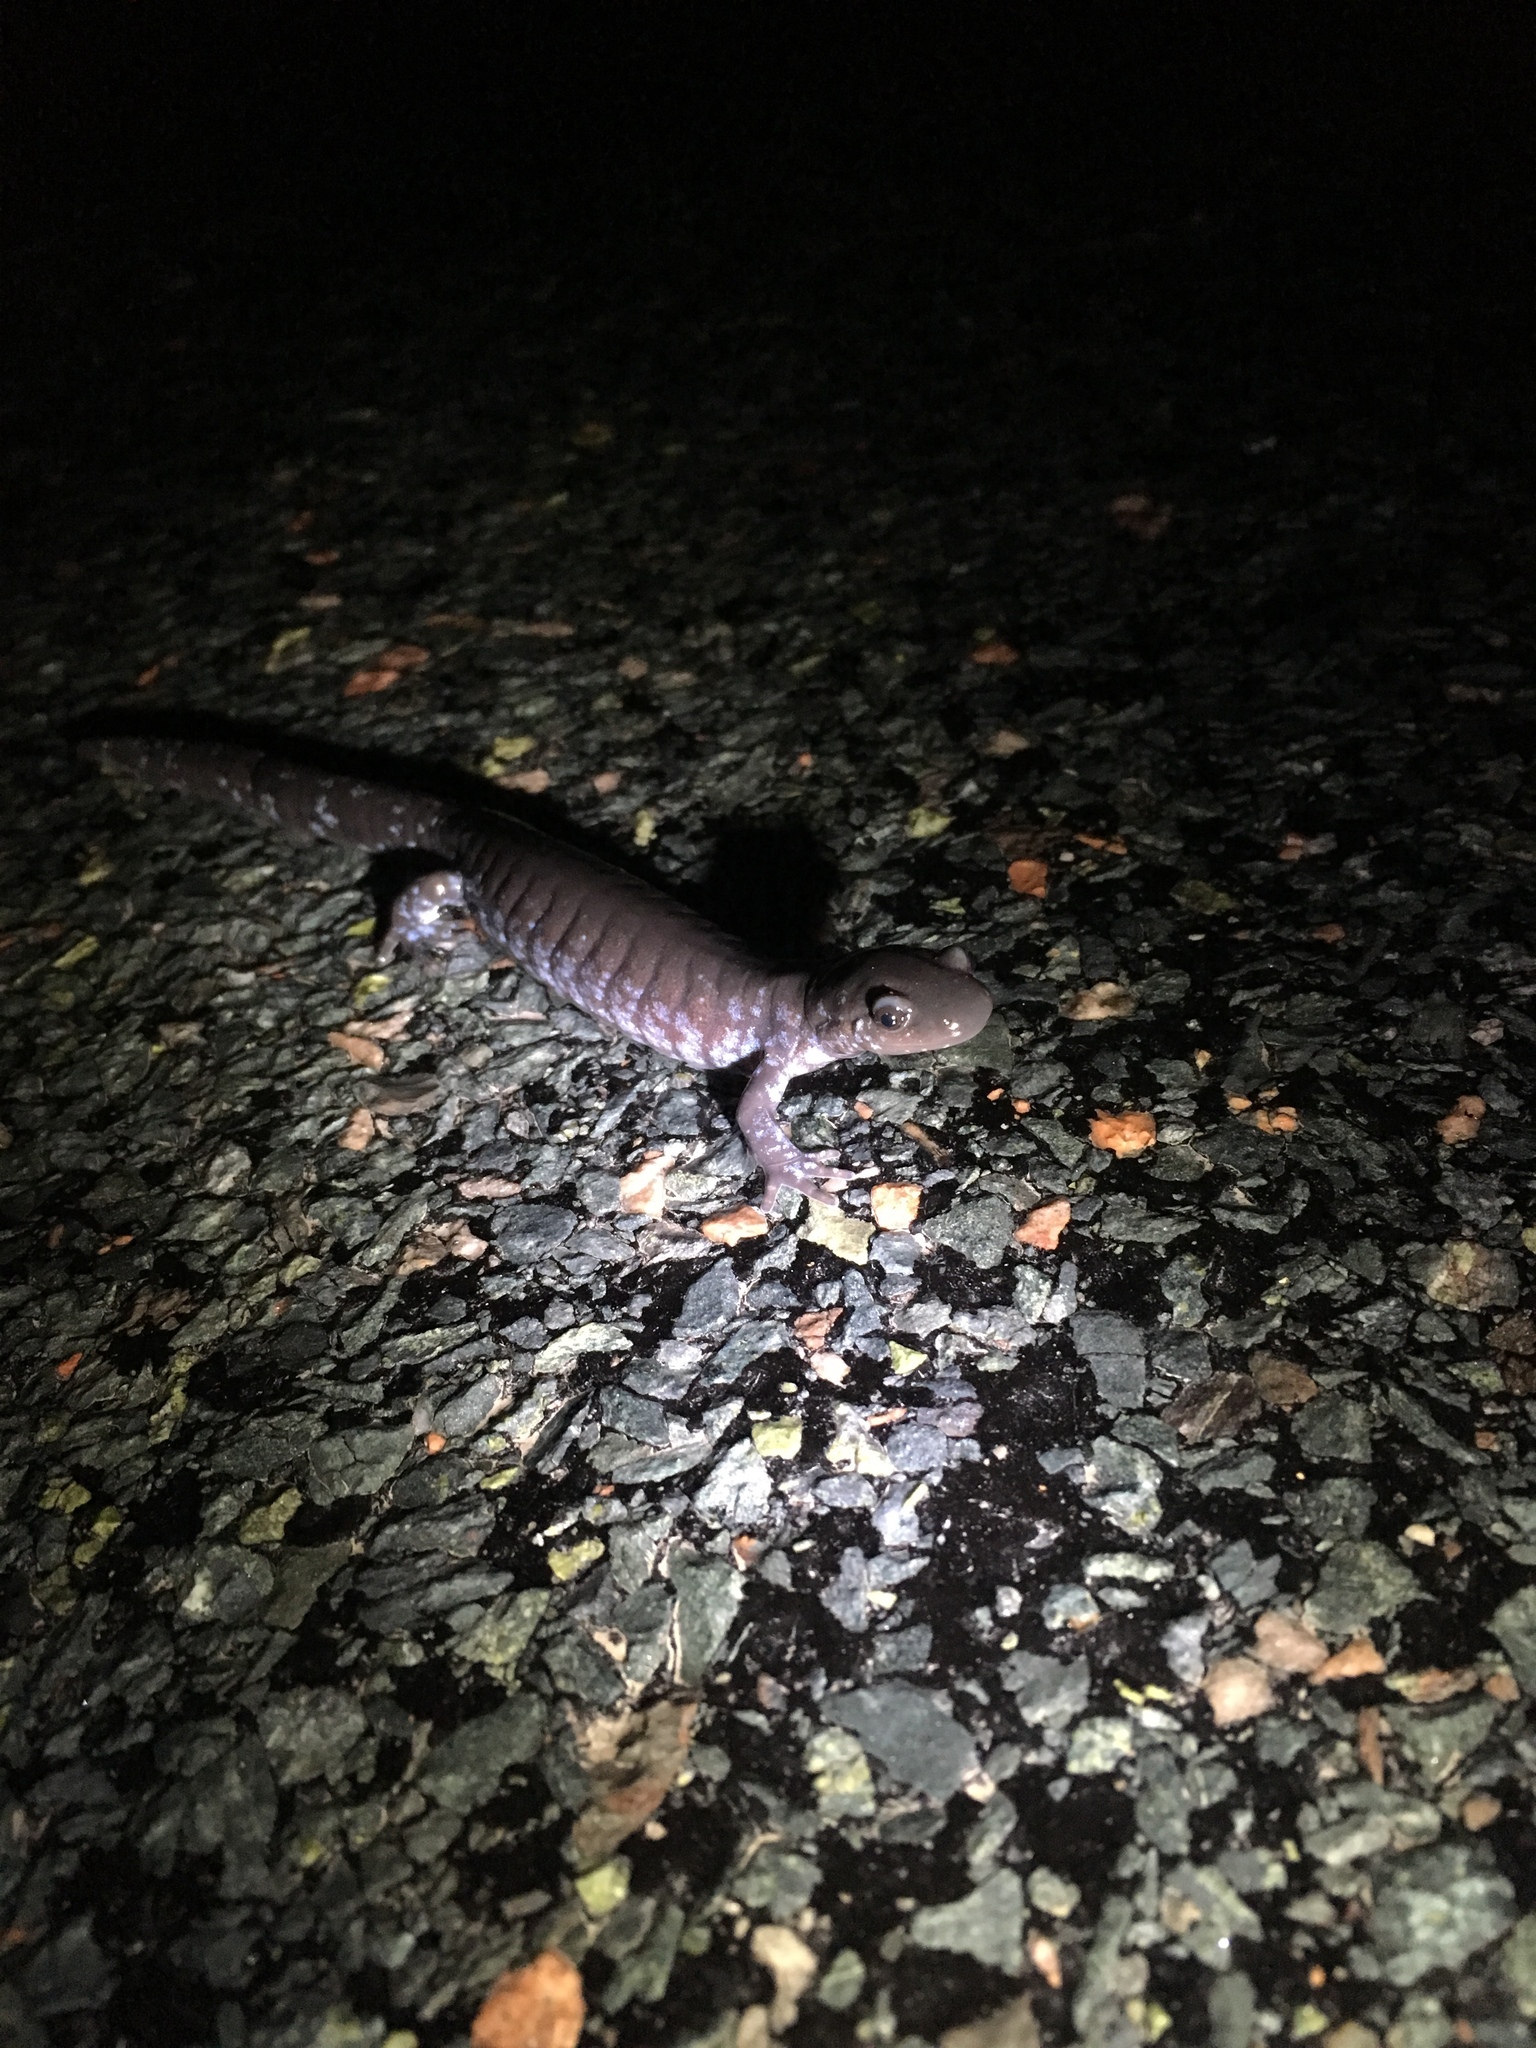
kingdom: Animalia
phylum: Chordata
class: Amphibia
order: Caudata
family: Ambystomatidae
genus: Ambystoma
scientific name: Ambystoma laterale
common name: Blue-spotted salamander
